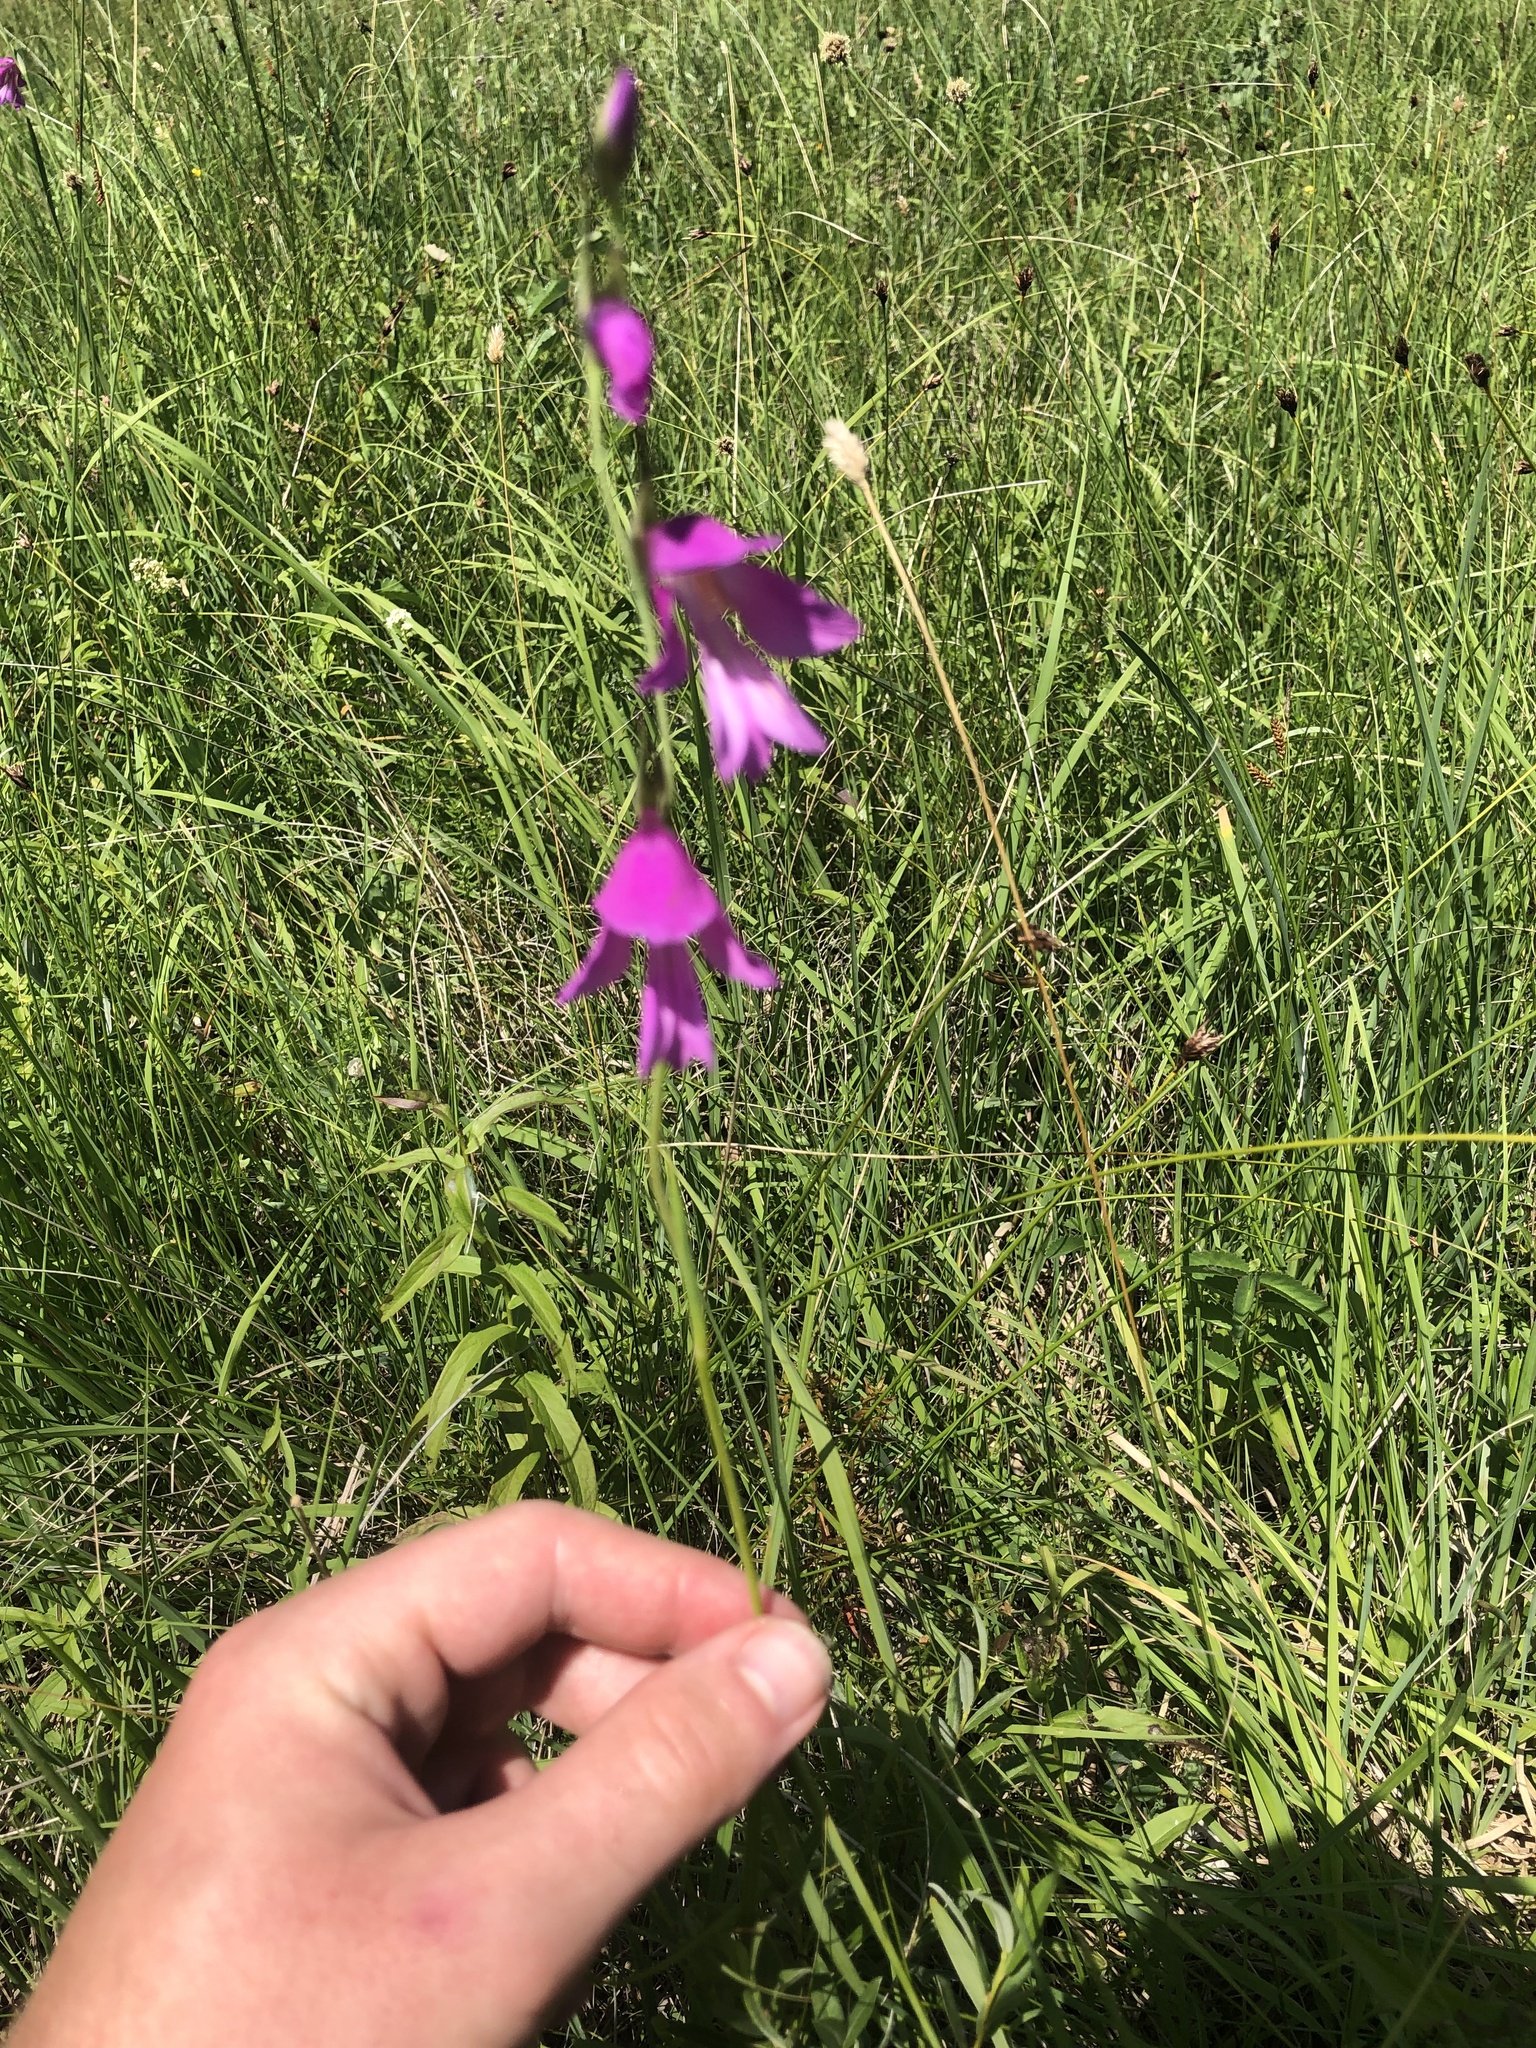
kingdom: Plantae
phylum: Tracheophyta
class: Liliopsida
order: Asparagales
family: Iridaceae
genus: Gladiolus
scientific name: Gladiolus palustris
